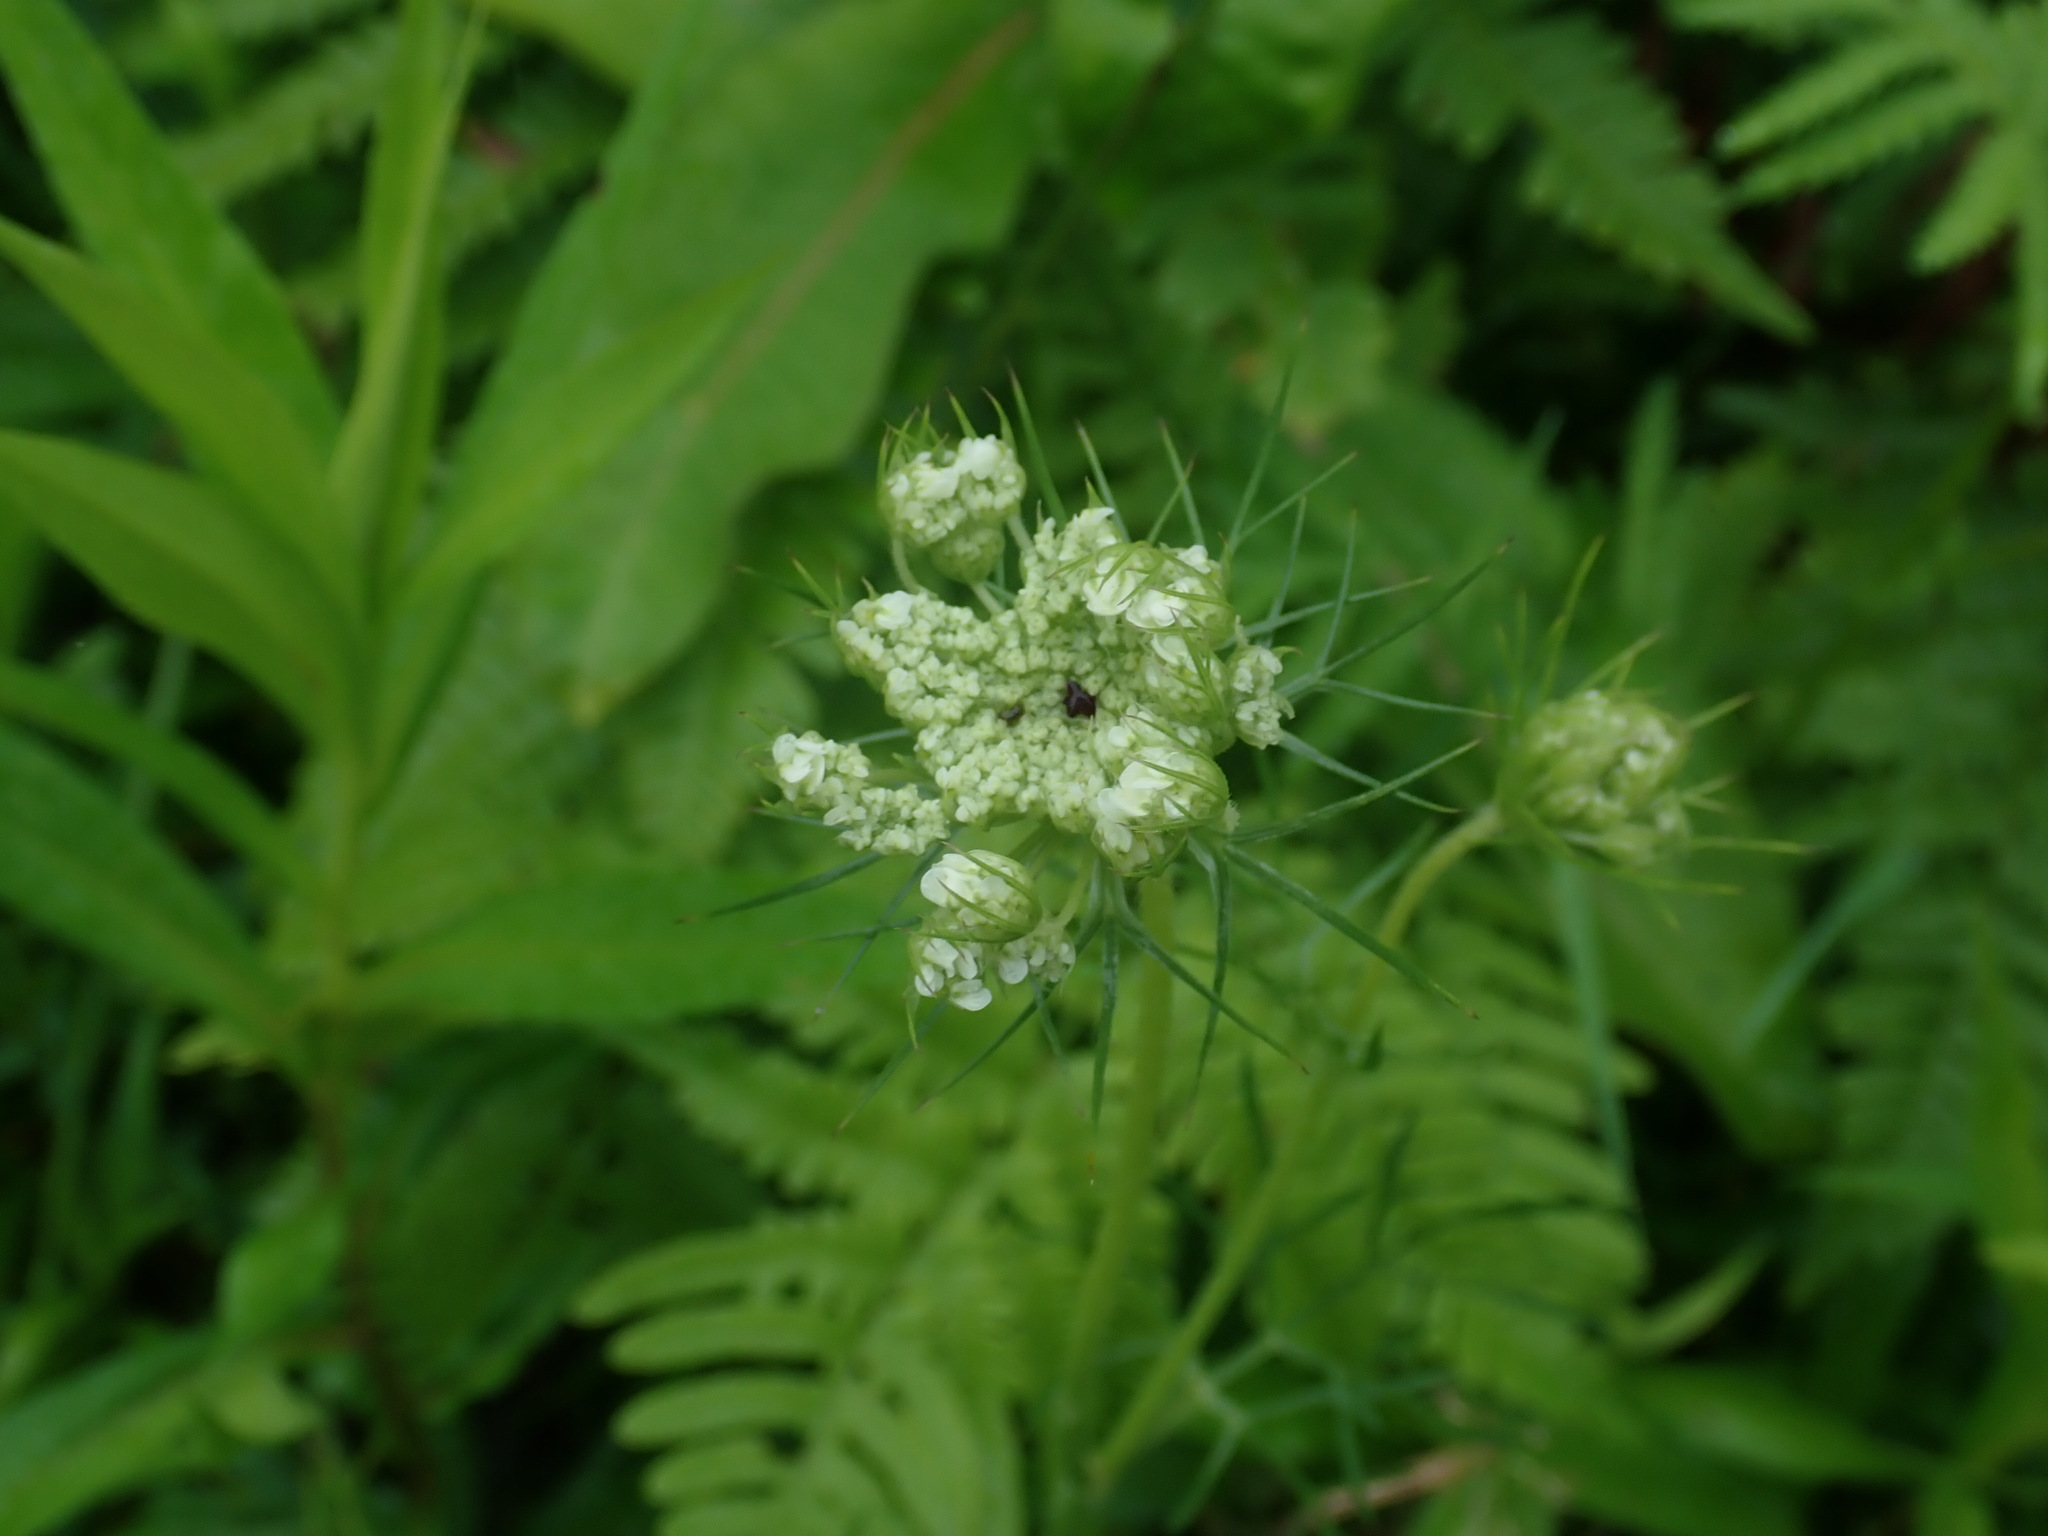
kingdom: Plantae
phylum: Tracheophyta
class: Magnoliopsida
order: Apiales
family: Apiaceae
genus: Daucus
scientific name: Daucus carota
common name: Wild carrot
